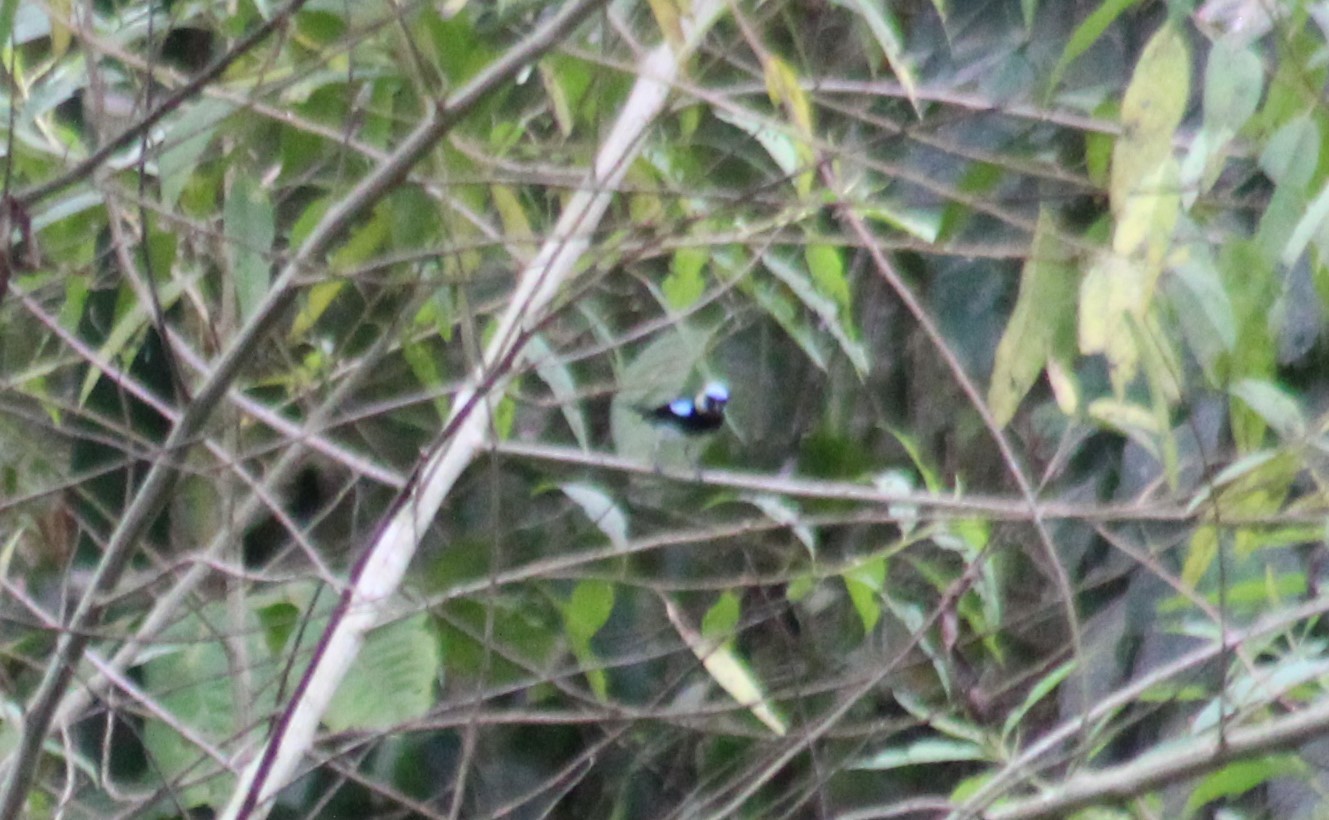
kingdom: Animalia
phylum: Chordata
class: Aves
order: Passeriformes
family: Thraupidae
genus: Stilpnia
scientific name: Stilpnia larvata
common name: Golden-hooded tanager
